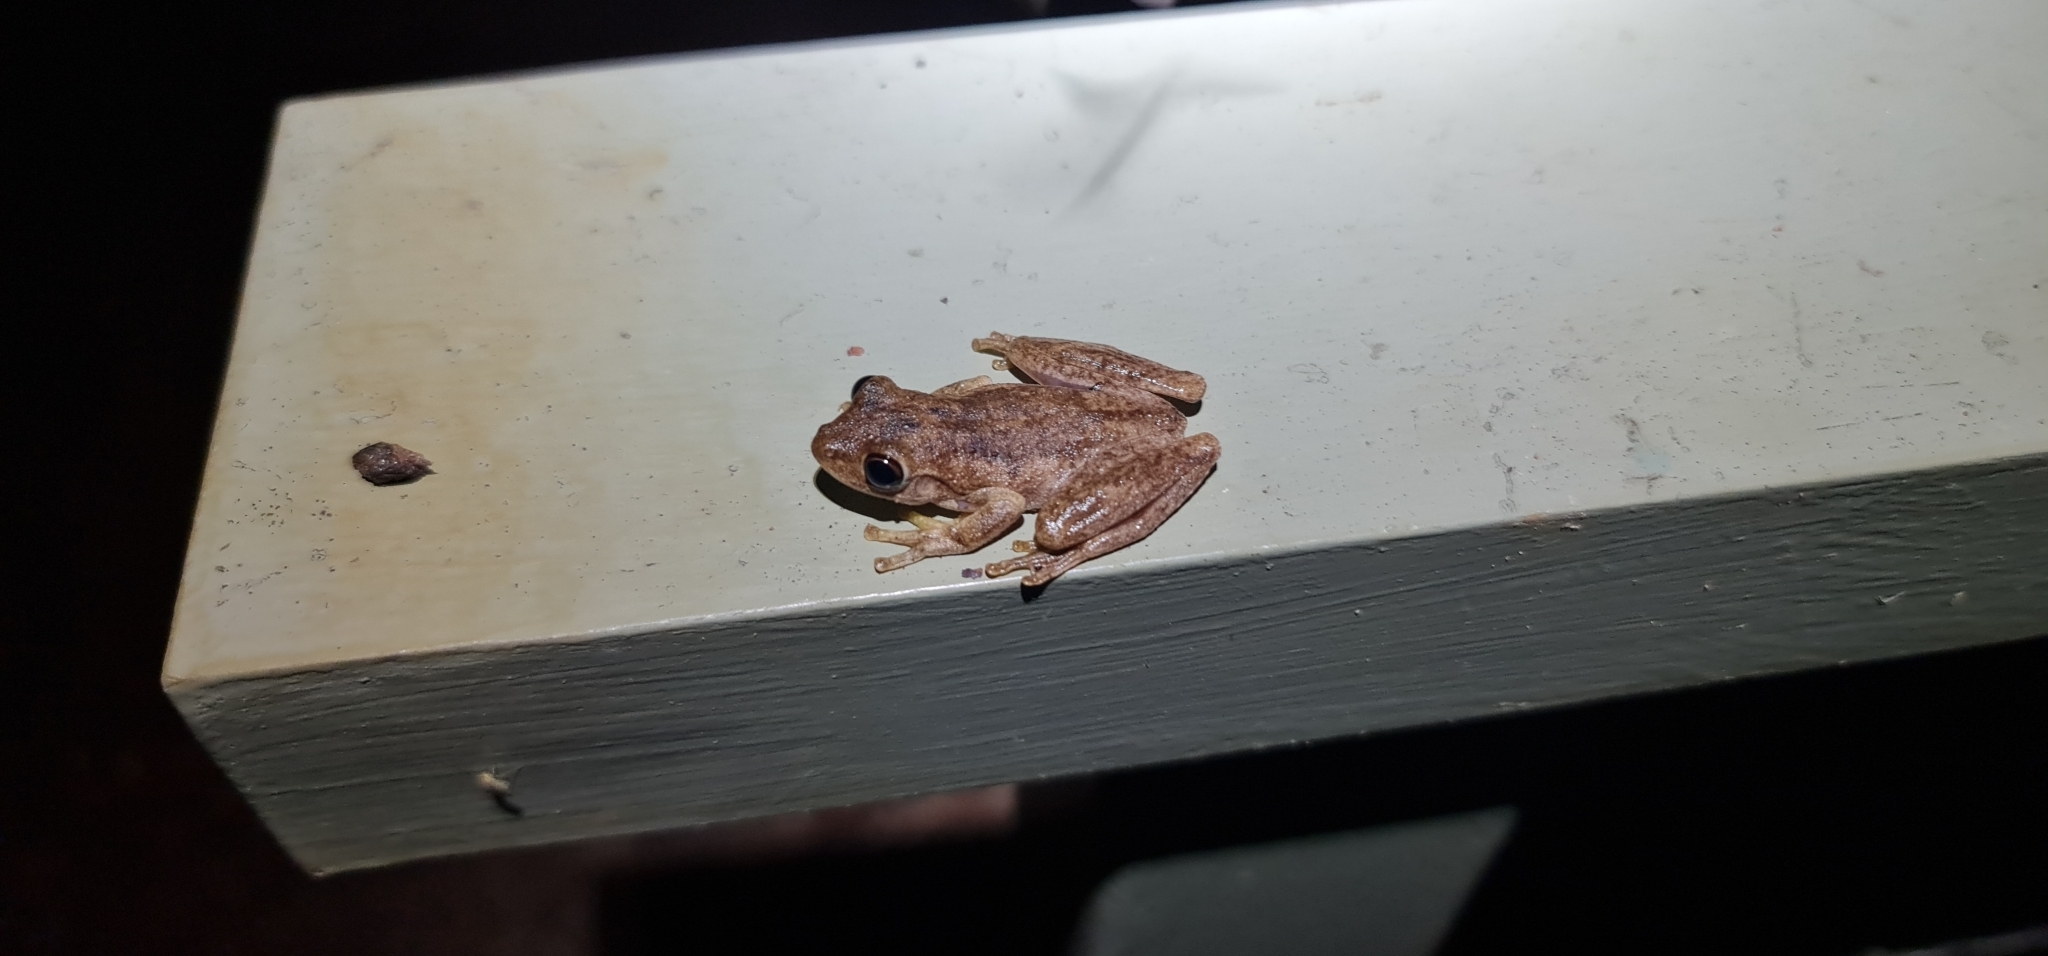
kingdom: Animalia
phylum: Chordata
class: Amphibia
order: Anura
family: Pelodryadidae
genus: Litoria
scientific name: Litoria
